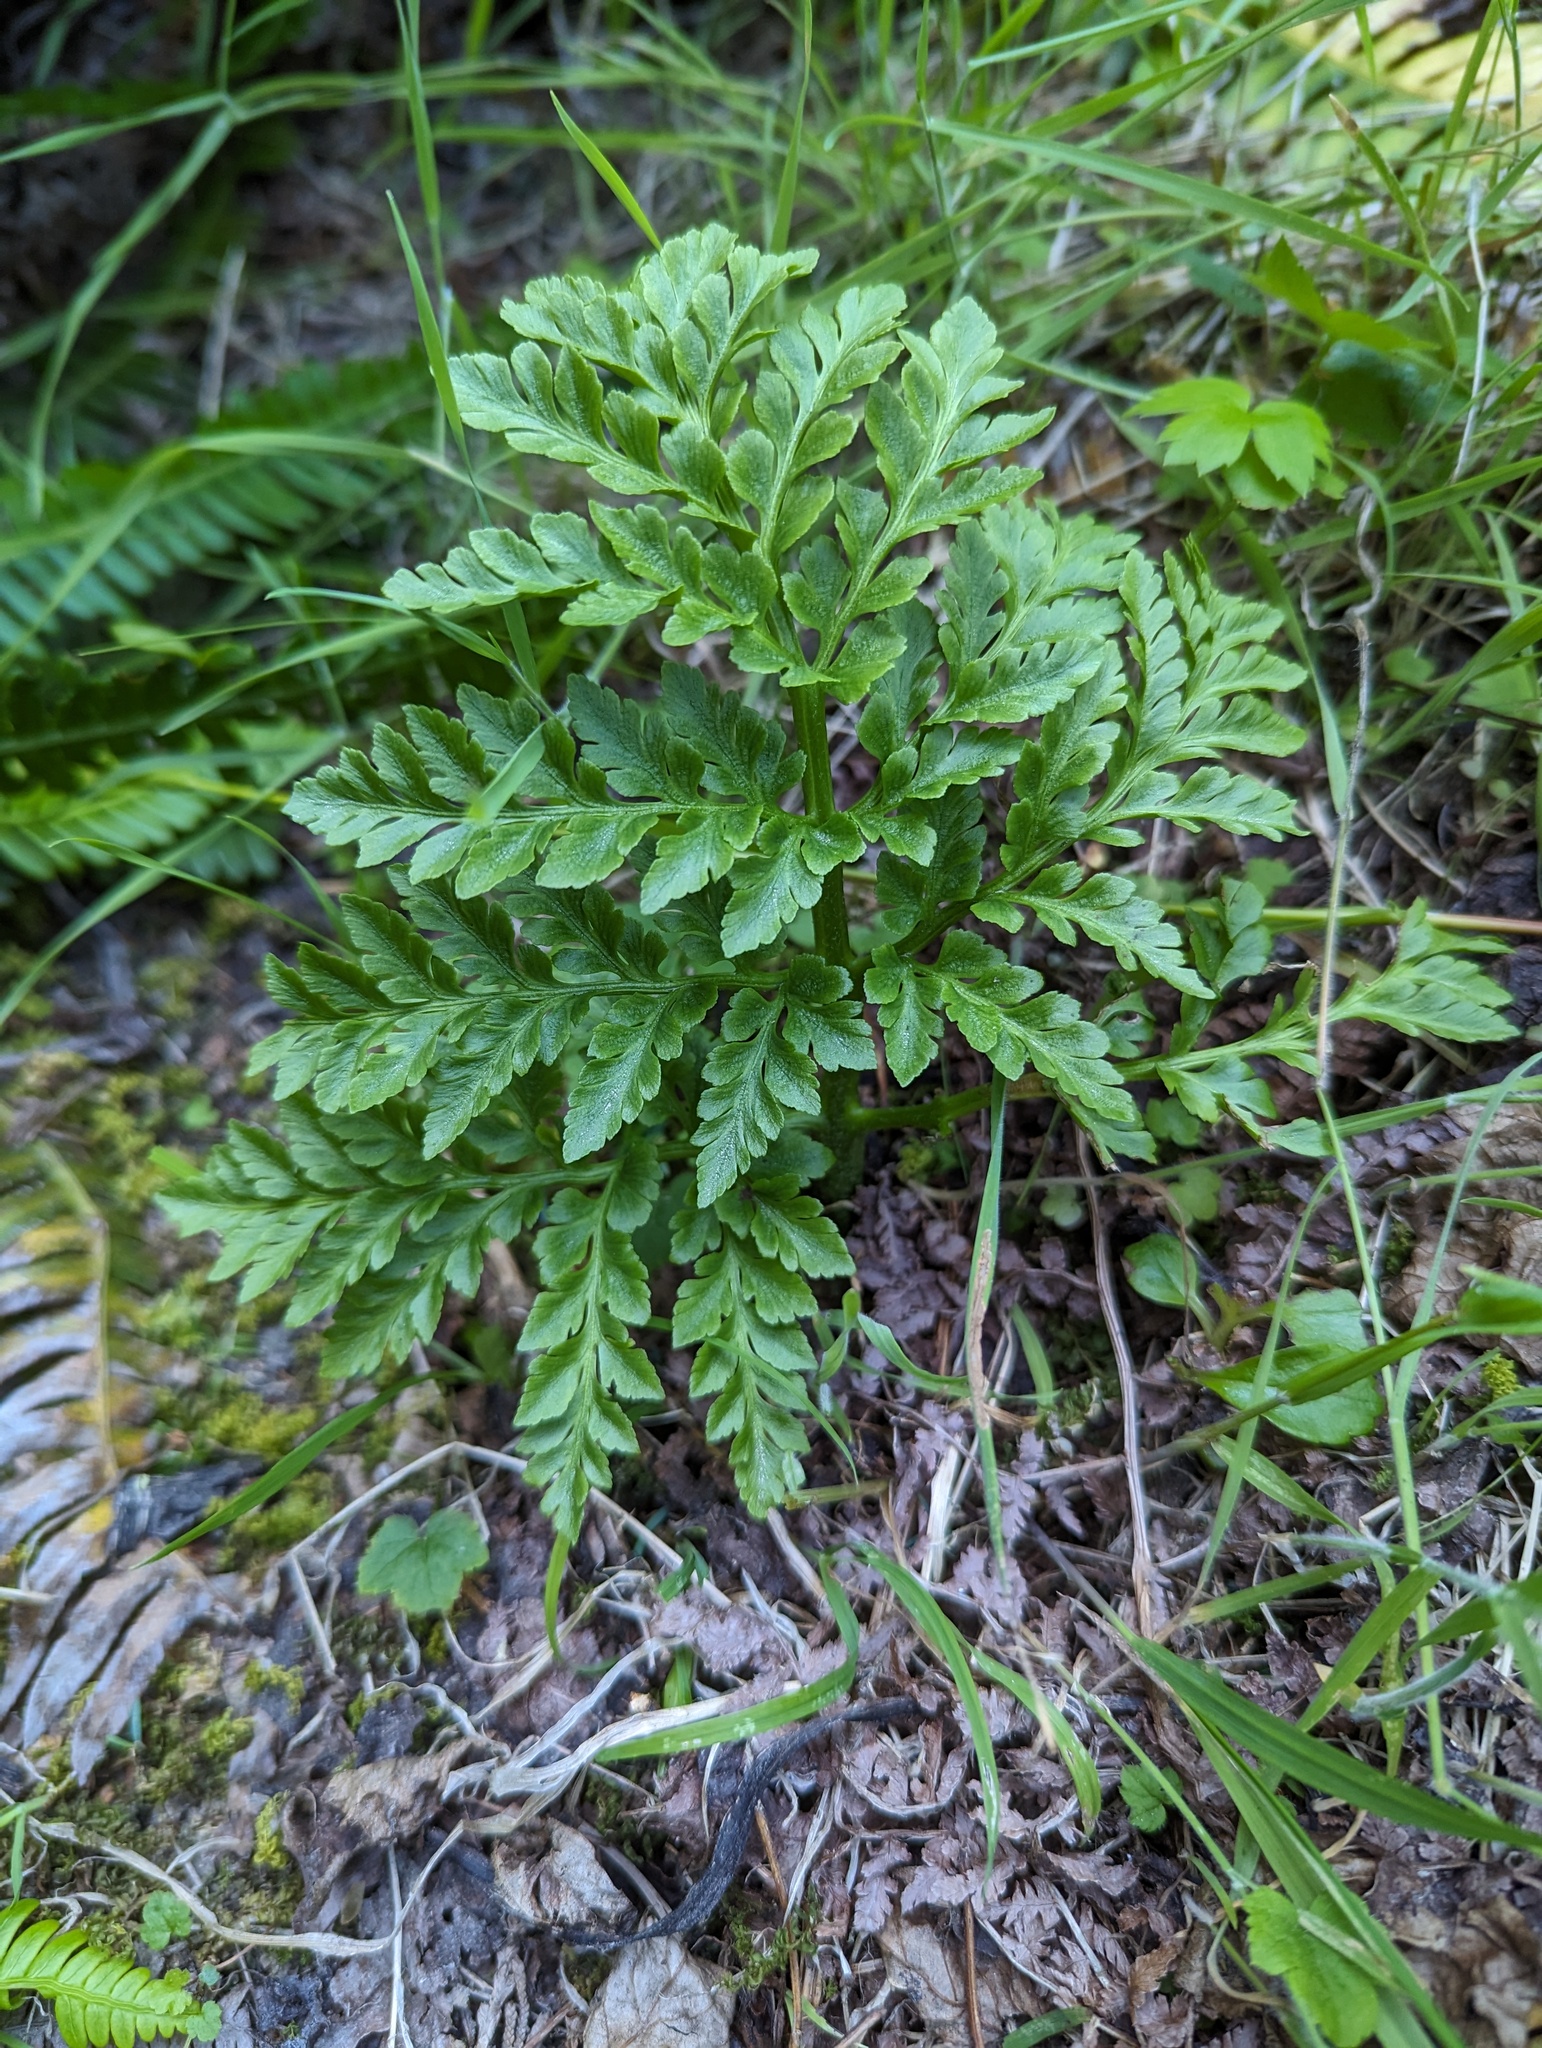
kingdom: Plantae
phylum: Tracheophyta
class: Polypodiopsida
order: Ophioglossales
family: Ophioglossaceae
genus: Sceptridium
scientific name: Sceptridium multifidum
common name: Leathery grape fern
